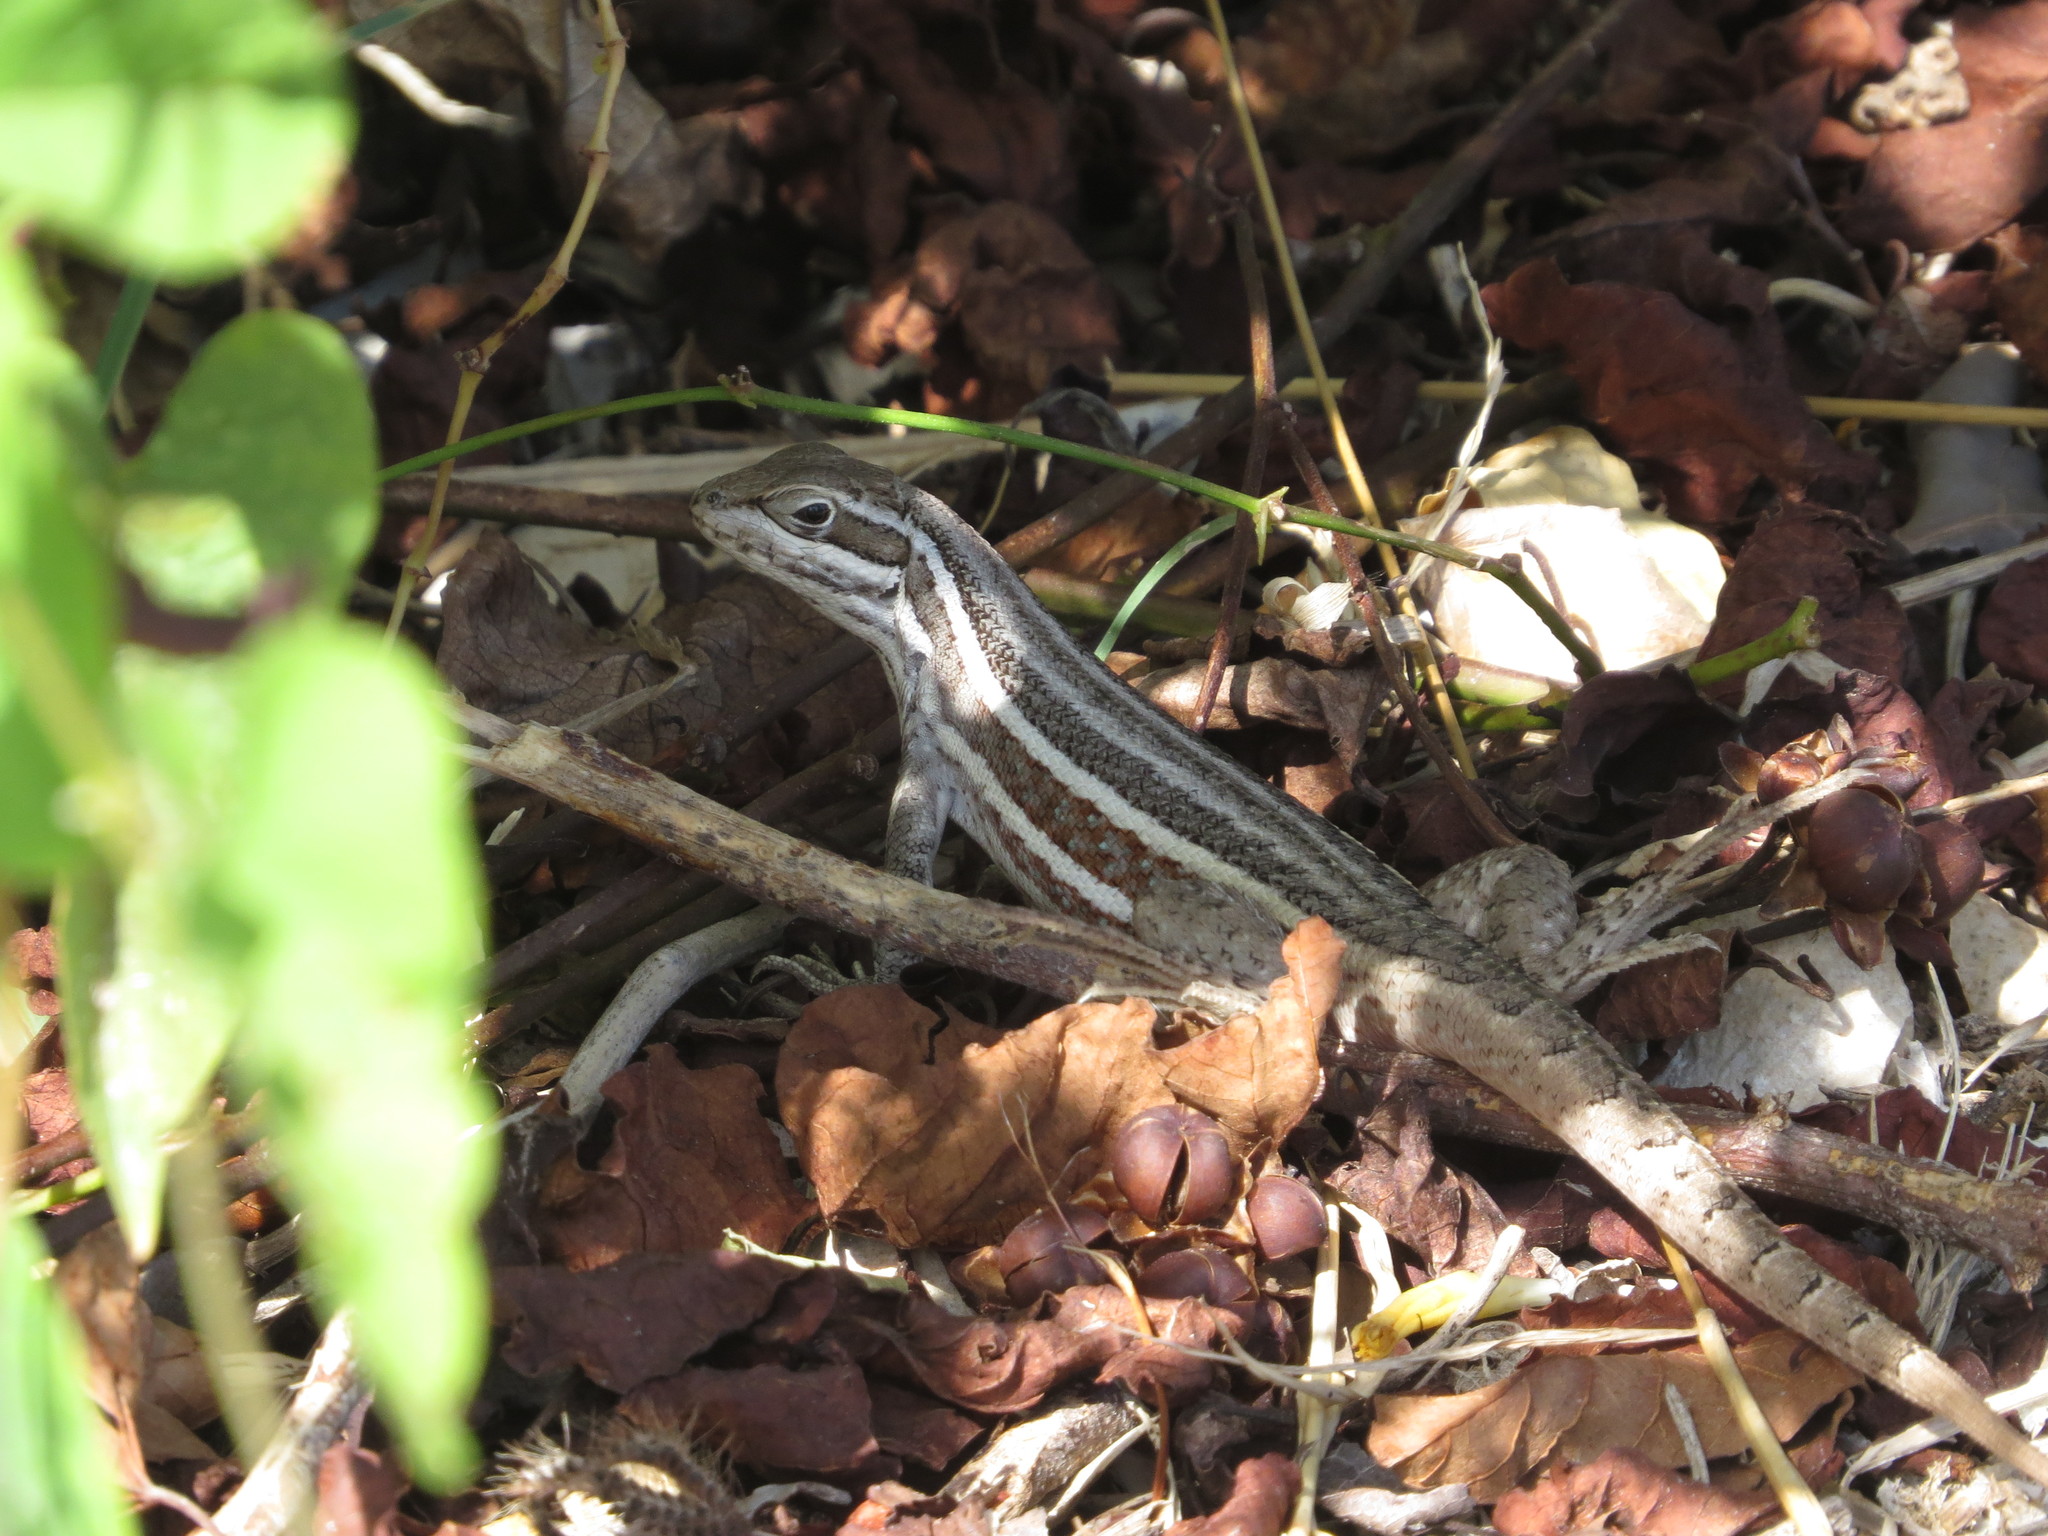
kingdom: Animalia
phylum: Chordata
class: Squamata
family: Leiocephalidae
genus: Leiocephalus
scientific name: Leiocephalus cubensis
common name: Cuban curlytail lizard
